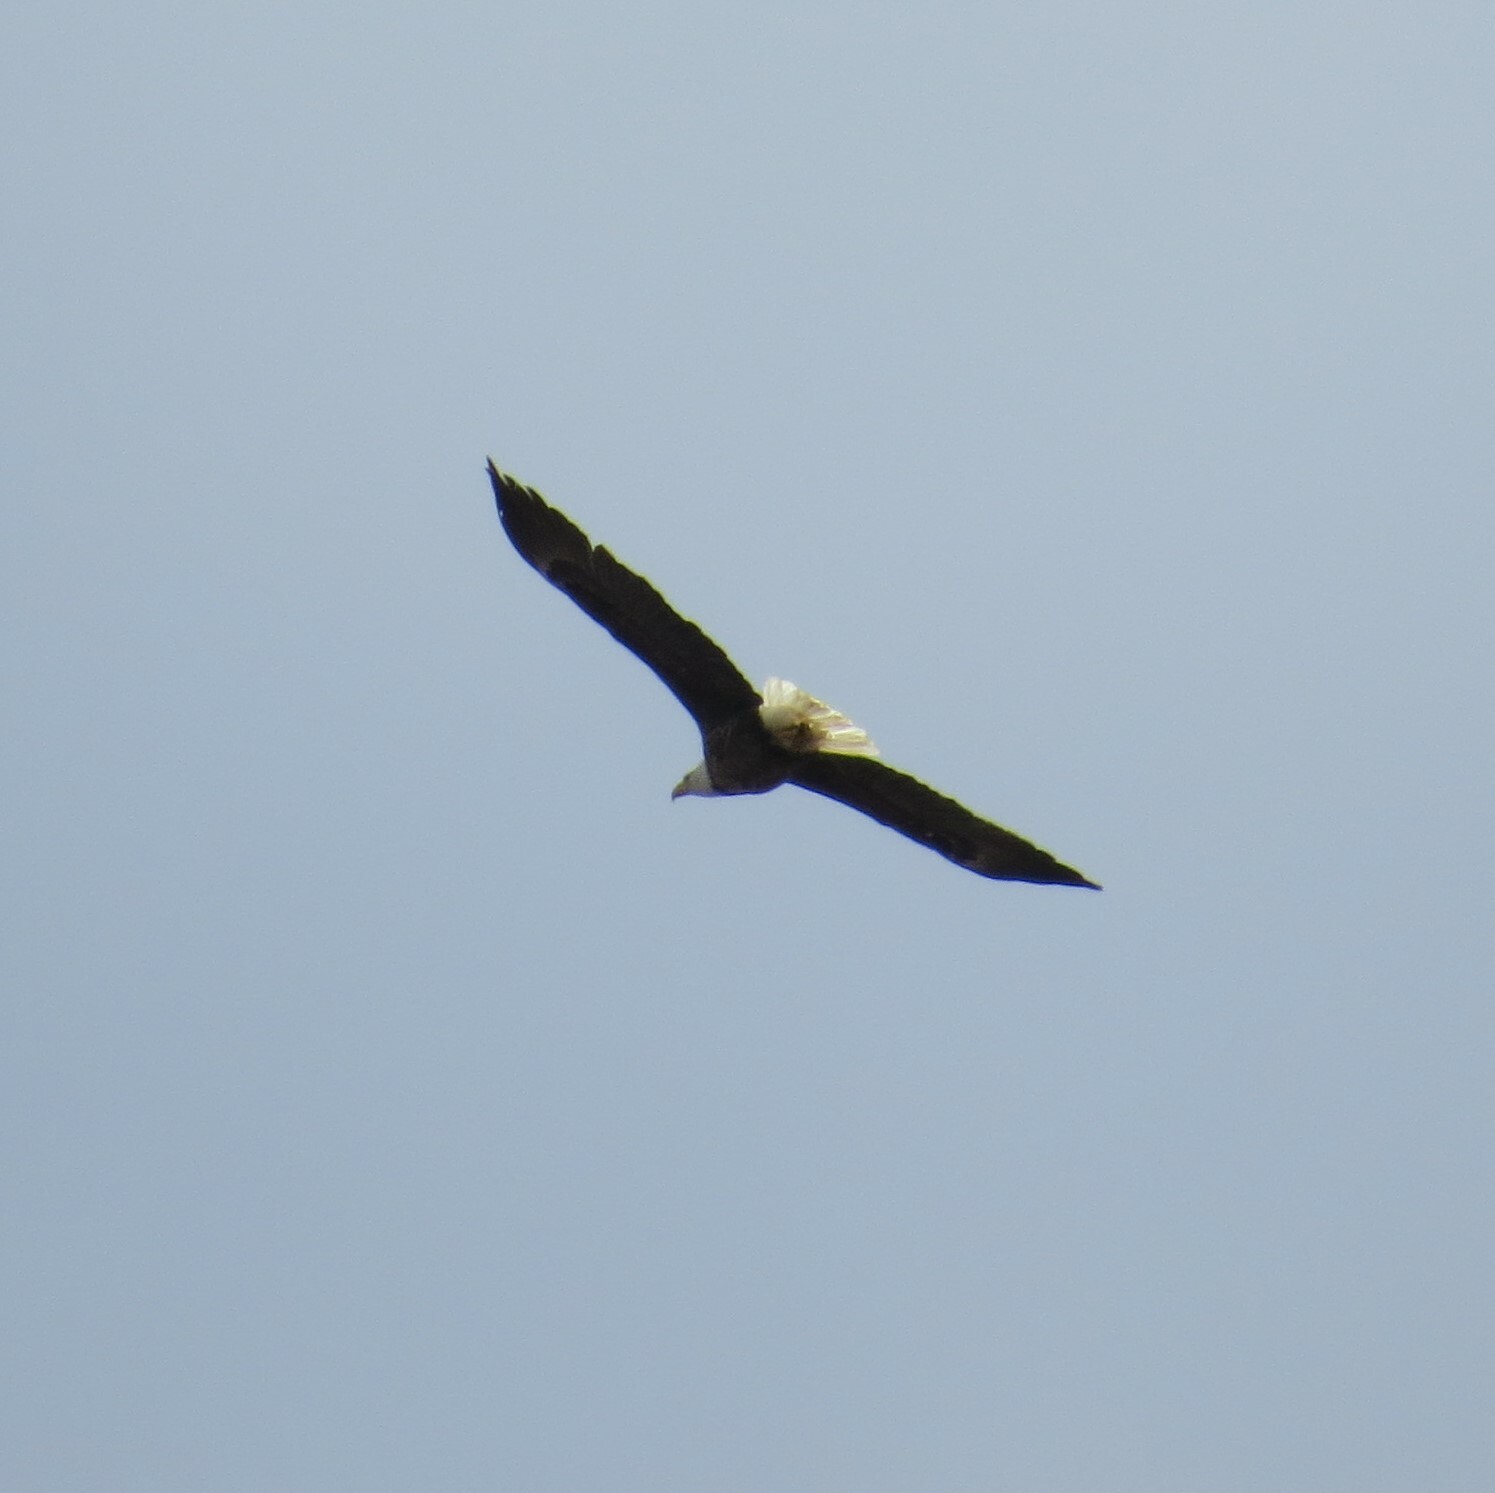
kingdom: Animalia
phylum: Chordata
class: Aves
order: Accipitriformes
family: Accipitridae
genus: Haliaeetus
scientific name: Haliaeetus leucocephalus
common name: Bald eagle
